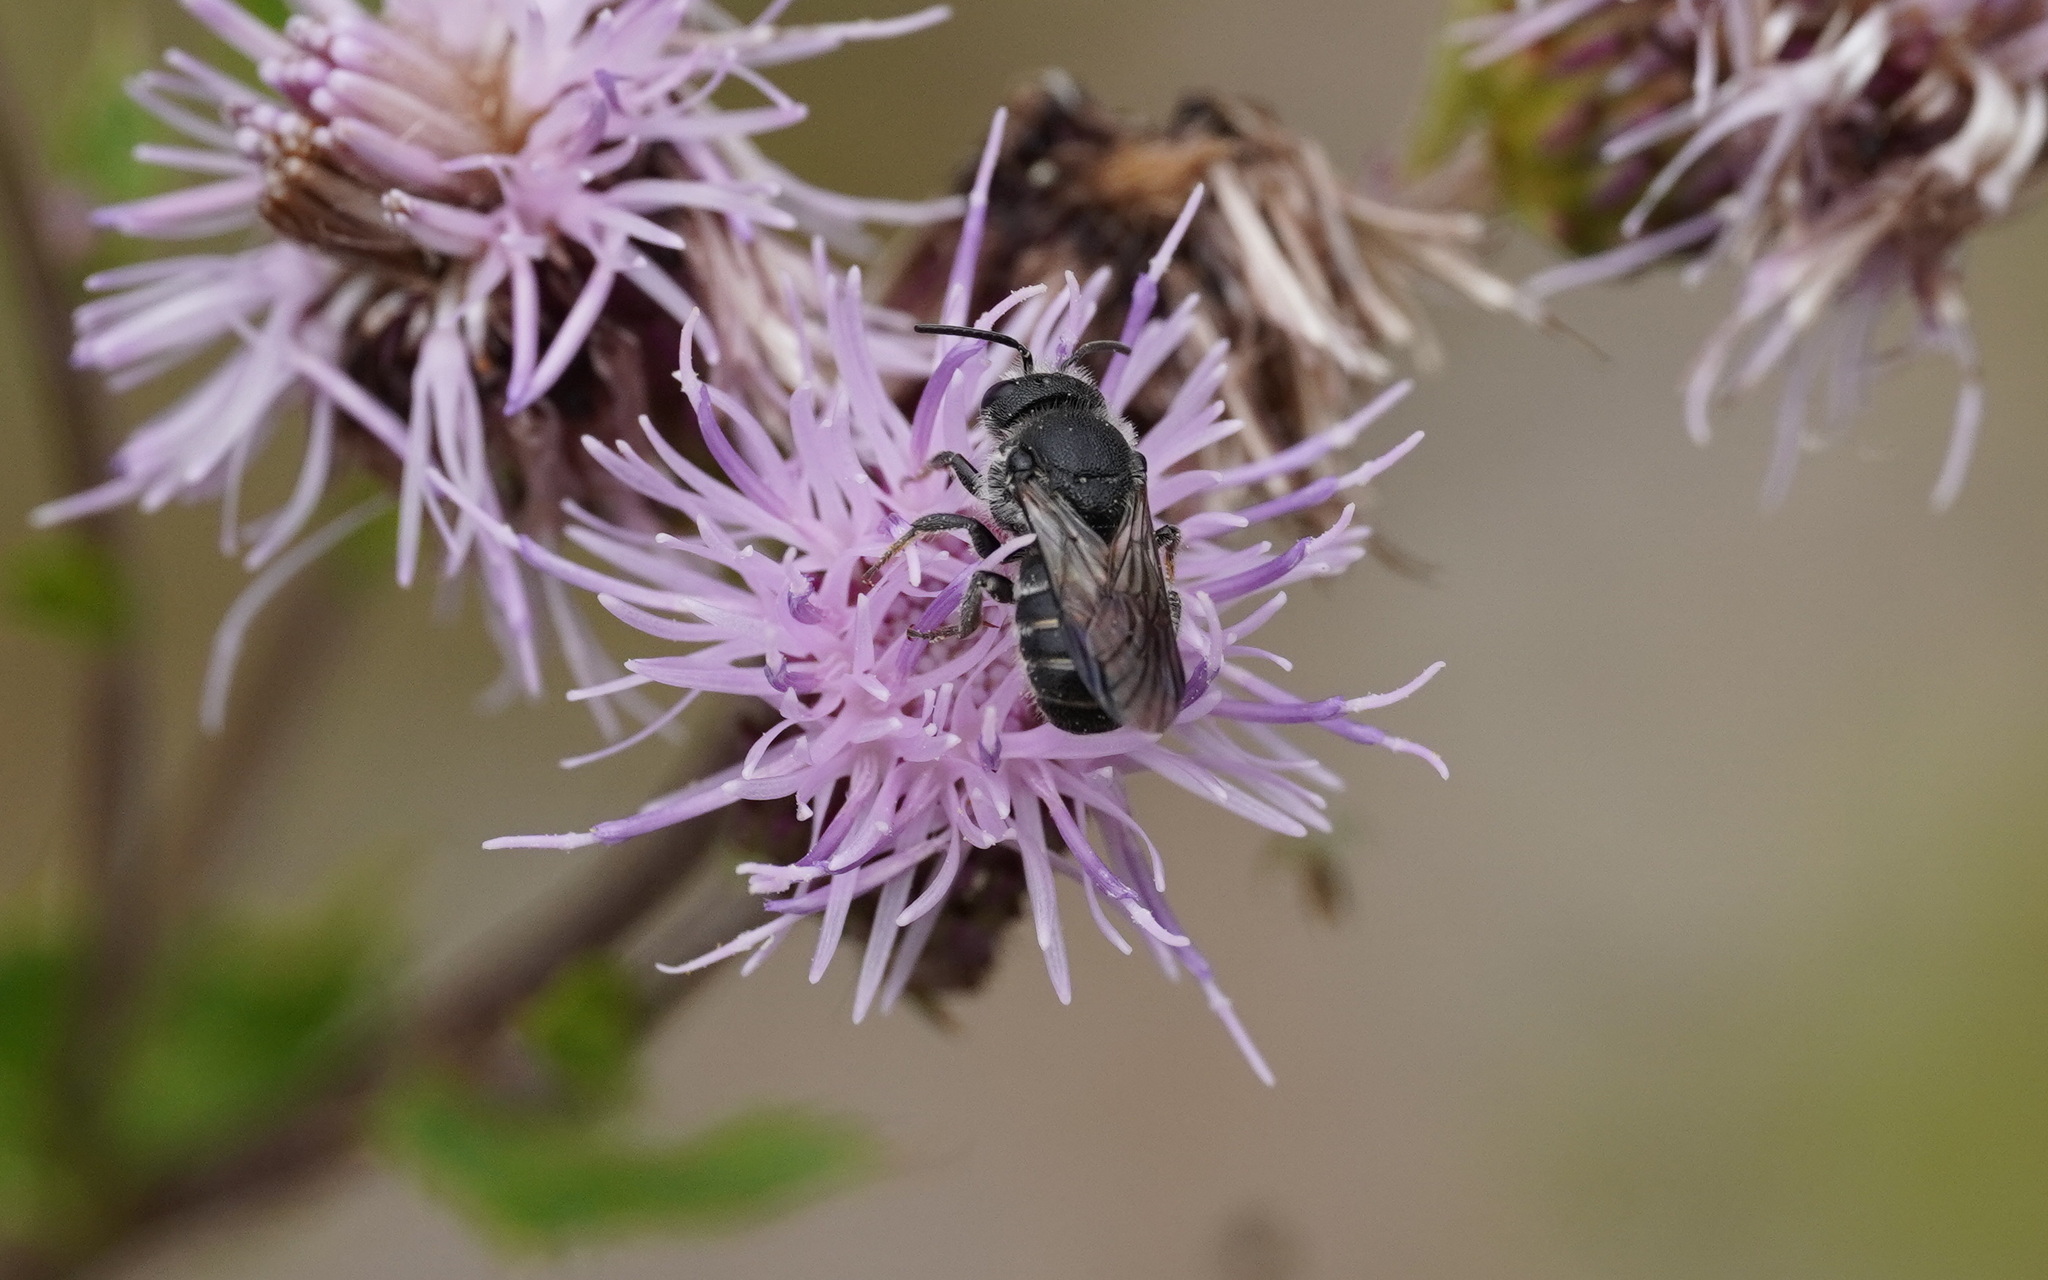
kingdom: Animalia
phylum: Arthropoda
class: Insecta
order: Hymenoptera
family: Megachilidae
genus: Stelis
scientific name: Stelis punctulatissima
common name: Banded dark bee
